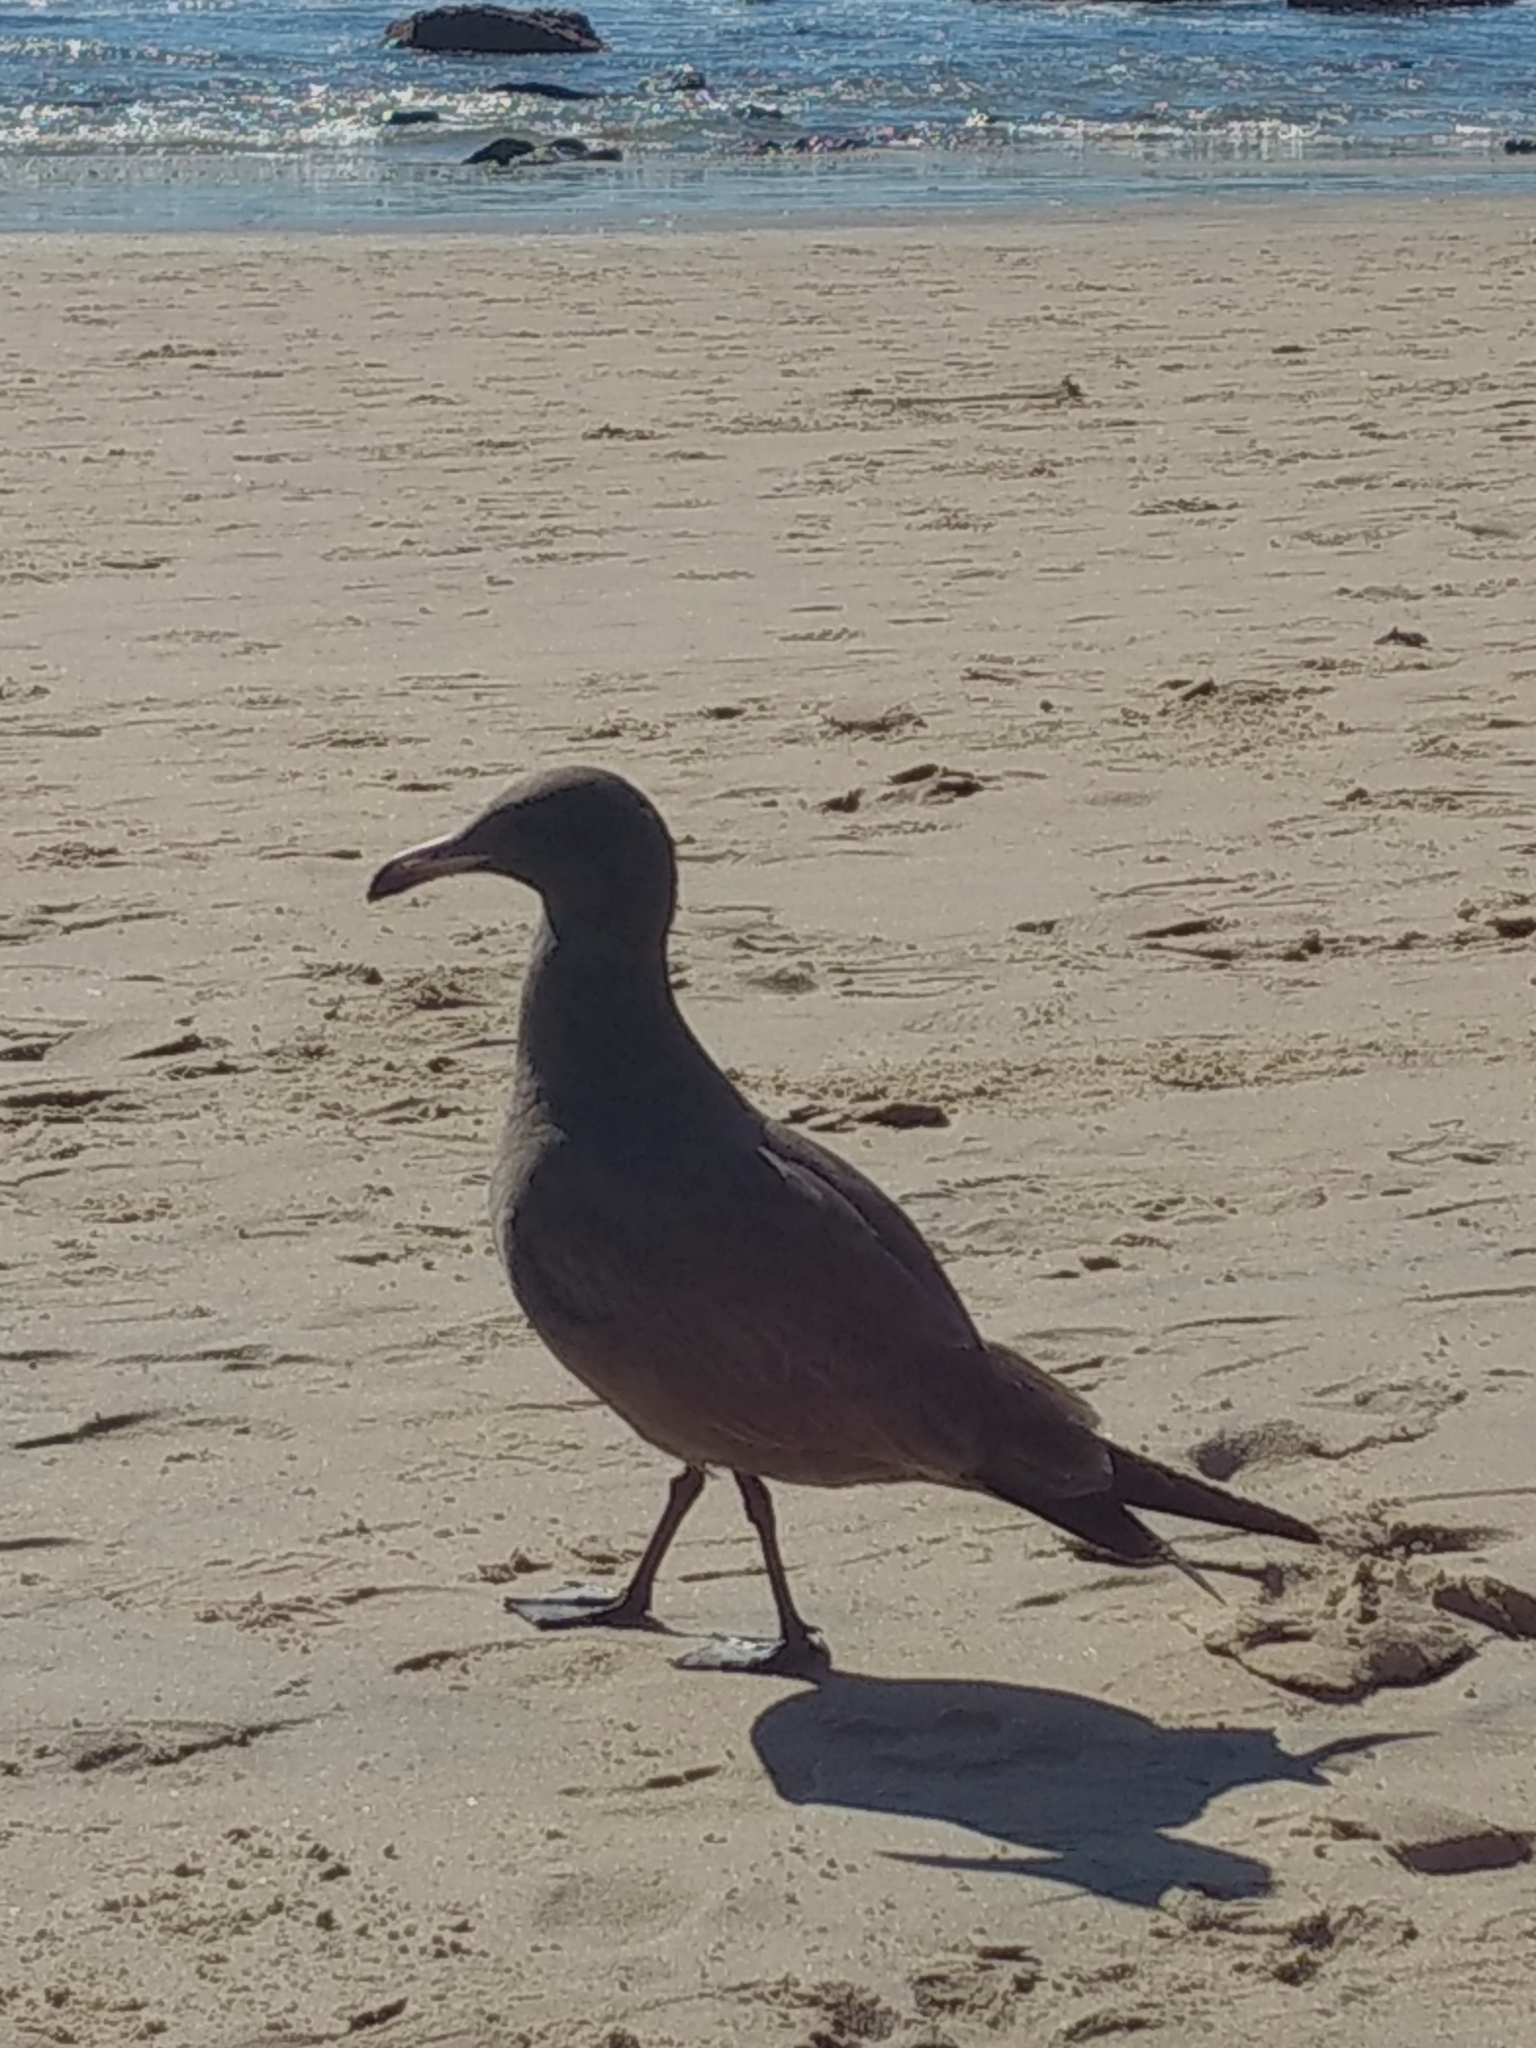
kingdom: Animalia
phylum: Chordata
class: Aves
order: Charadriiformes
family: Laridae
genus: Larus
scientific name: Larus heermanni
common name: Heermann's gull
